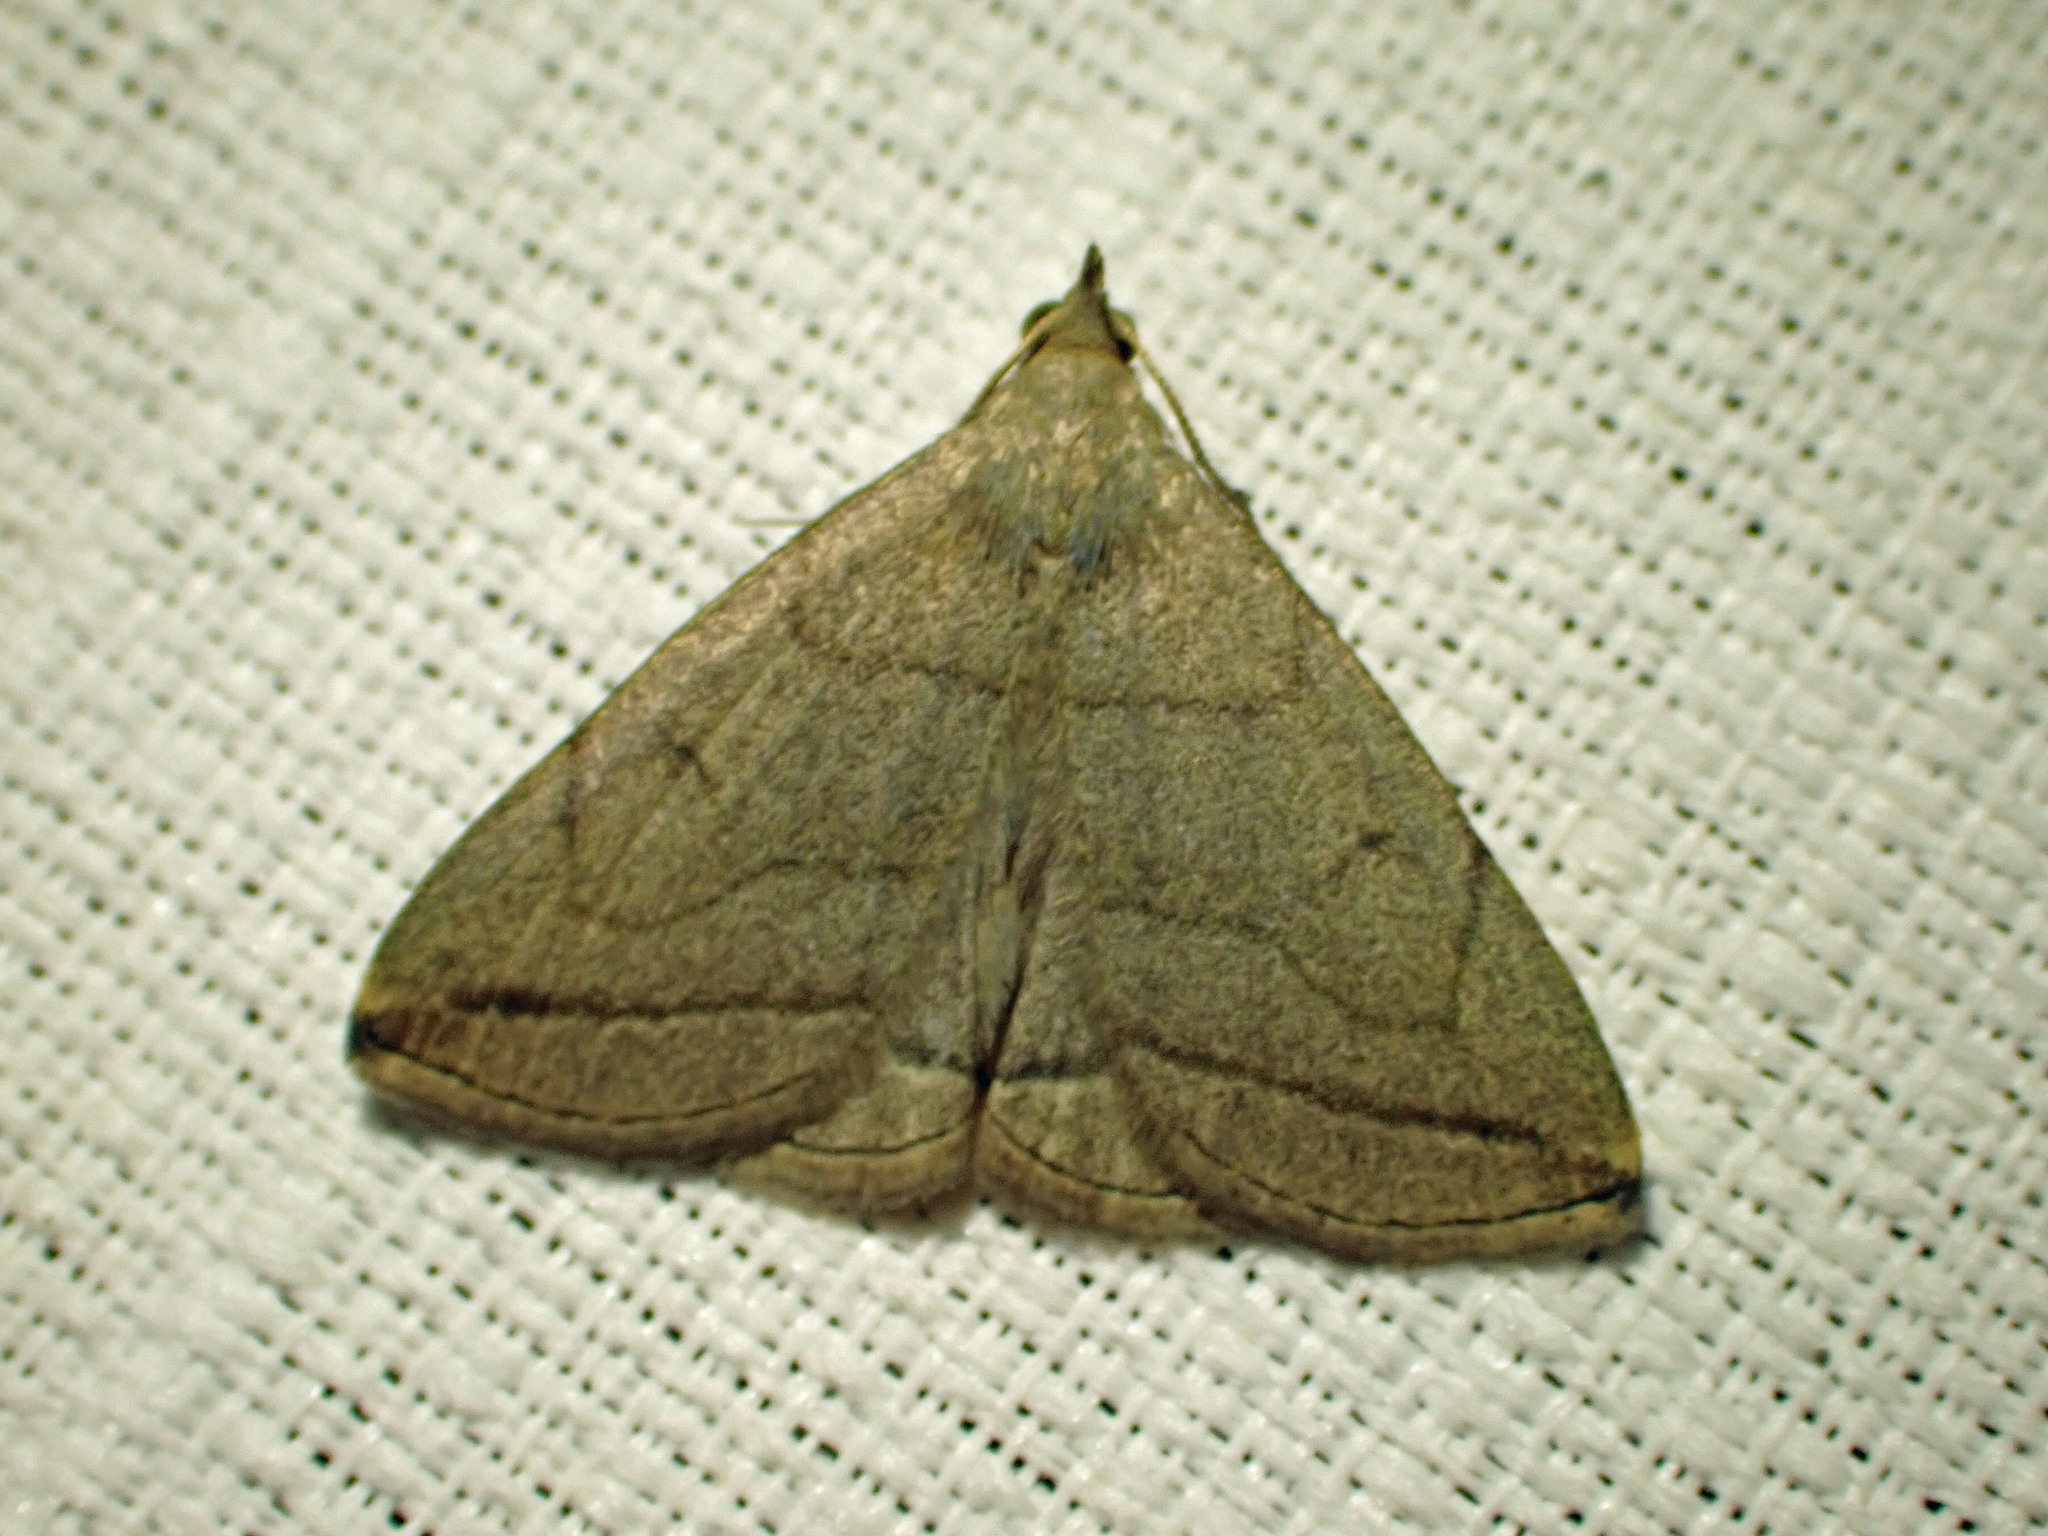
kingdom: Animalia
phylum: Arthropoda
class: Insecta
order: Lepidoptera
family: Erebidae
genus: Zanclognatha
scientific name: Zanclognatha pedipilalis
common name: Grayish fan-foot
